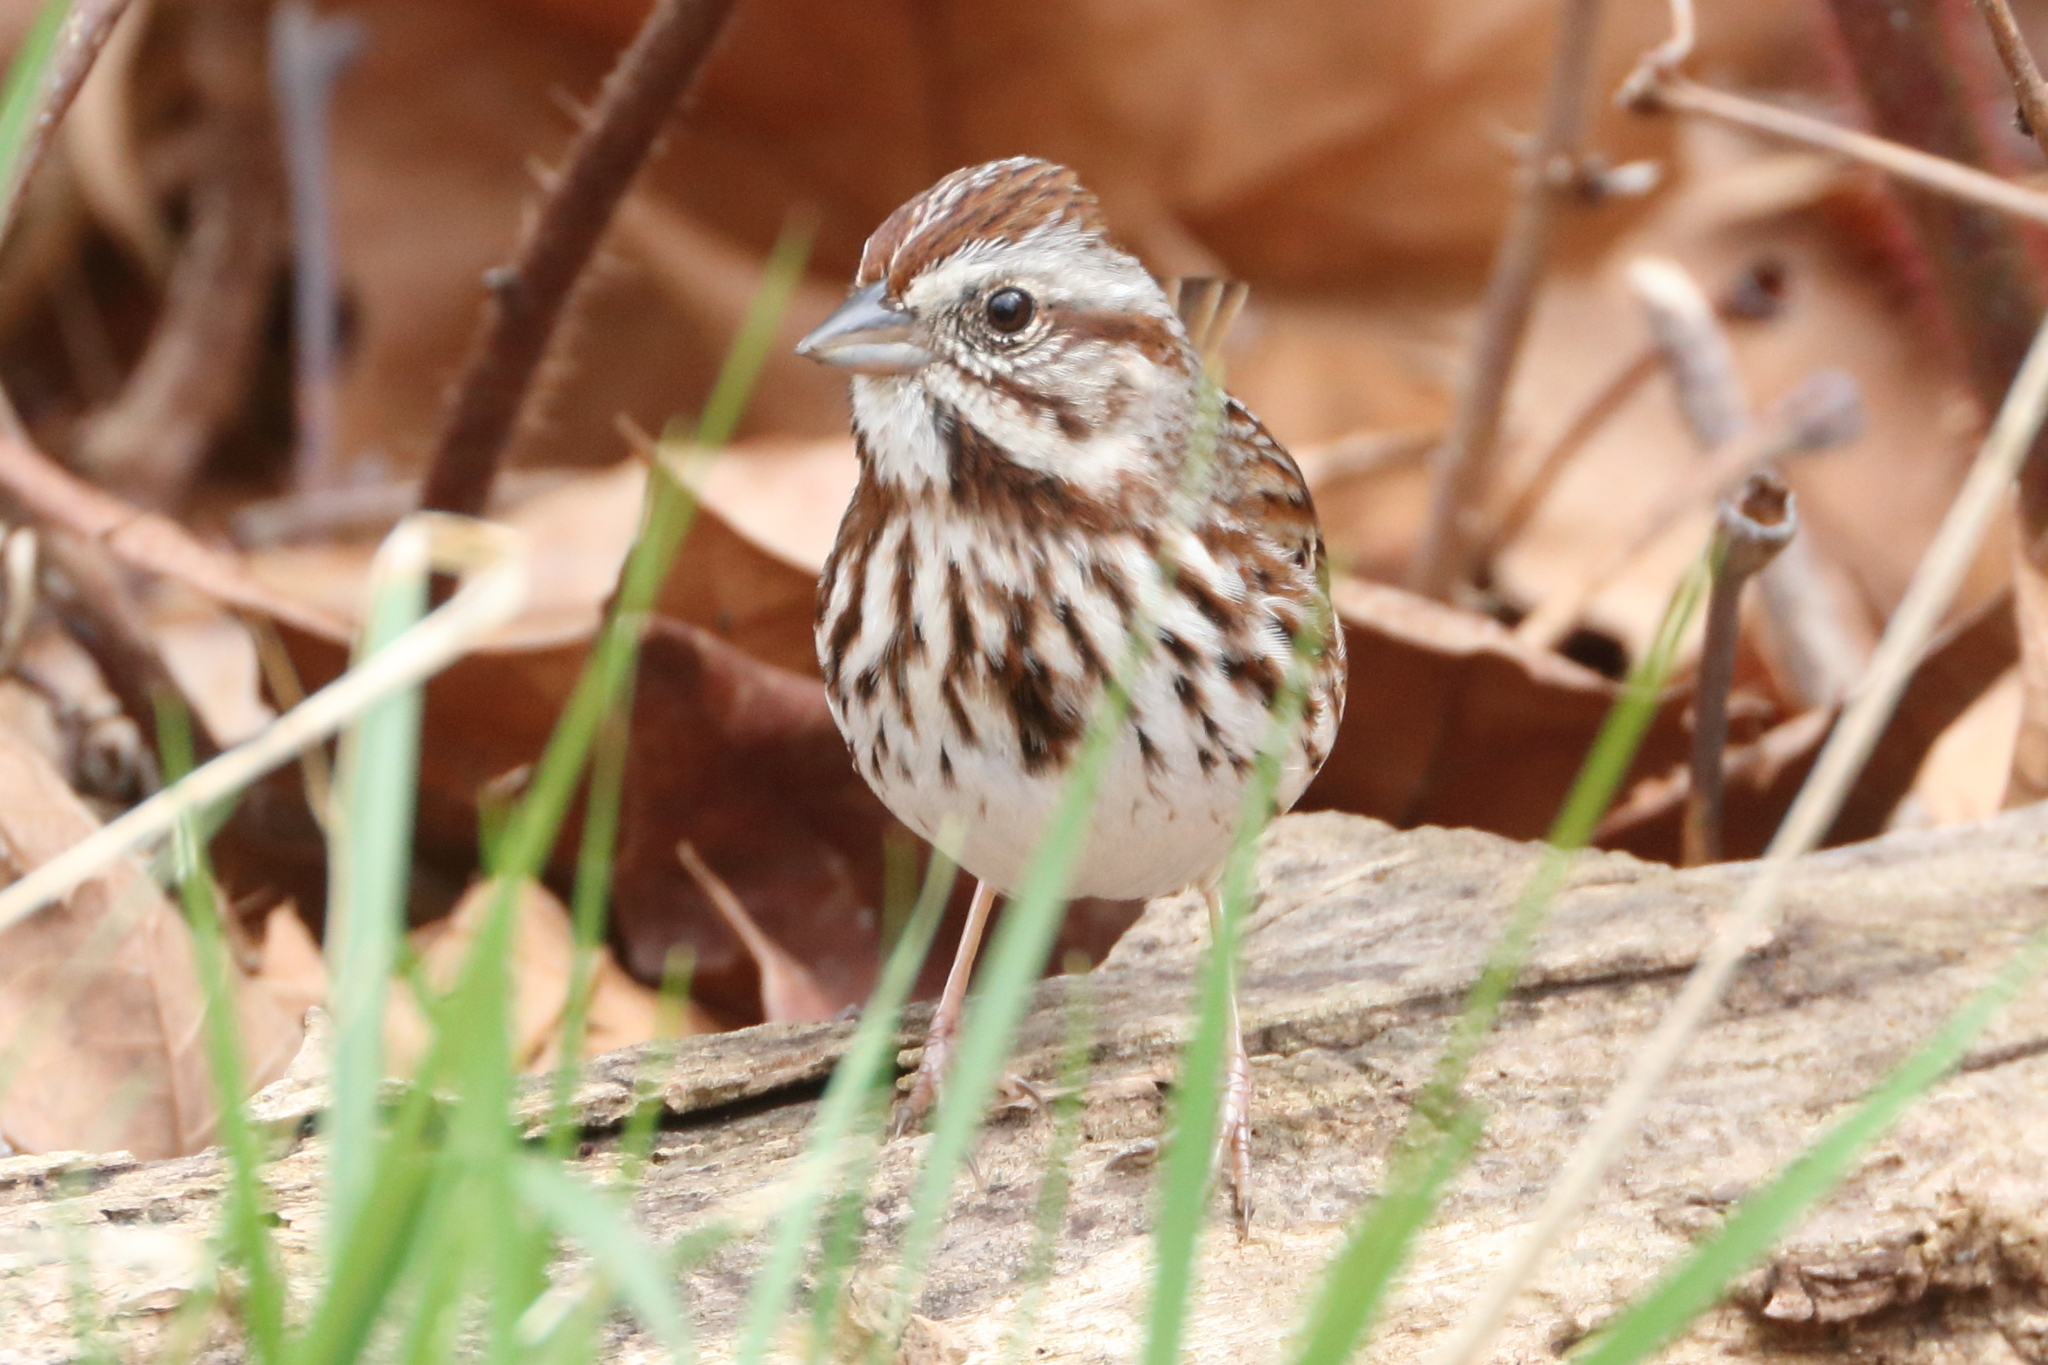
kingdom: Animalia
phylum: Chordata
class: Aves
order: Passeriformes
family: Passerellidae
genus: Melospiza
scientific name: Melospiza melodia
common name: Song sparrow
